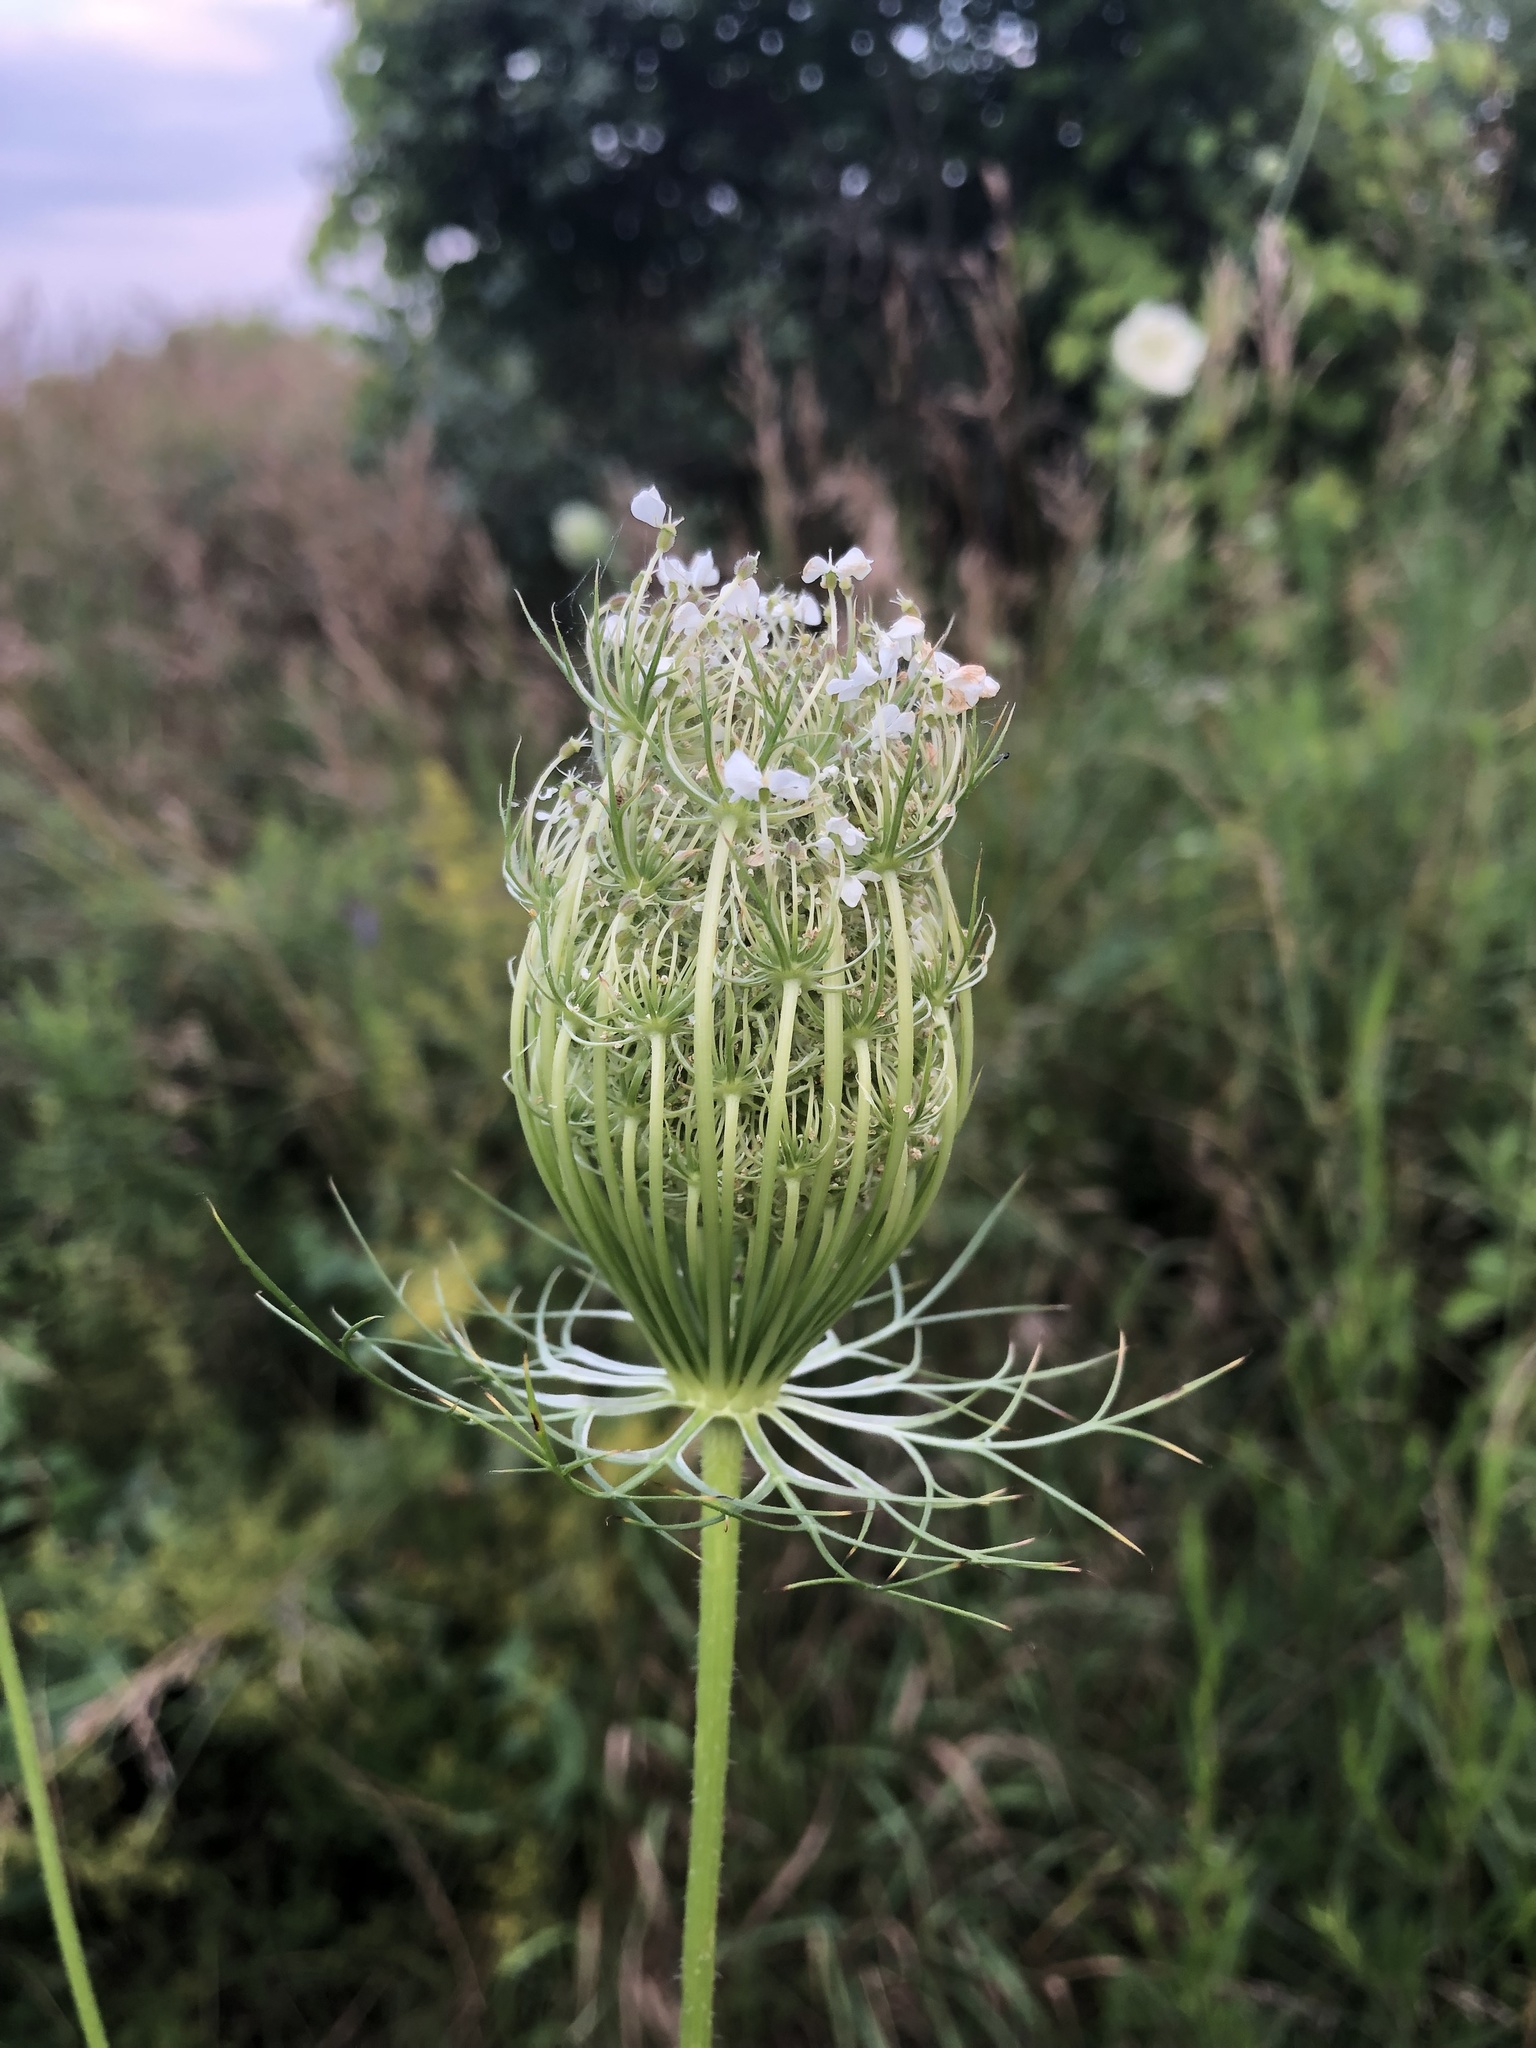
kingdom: Plantae
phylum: Tracheophyta
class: Magnoliopsida
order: Apiales
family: Apiaceae
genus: Daucus
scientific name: Daucus carota
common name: Wild carrot
